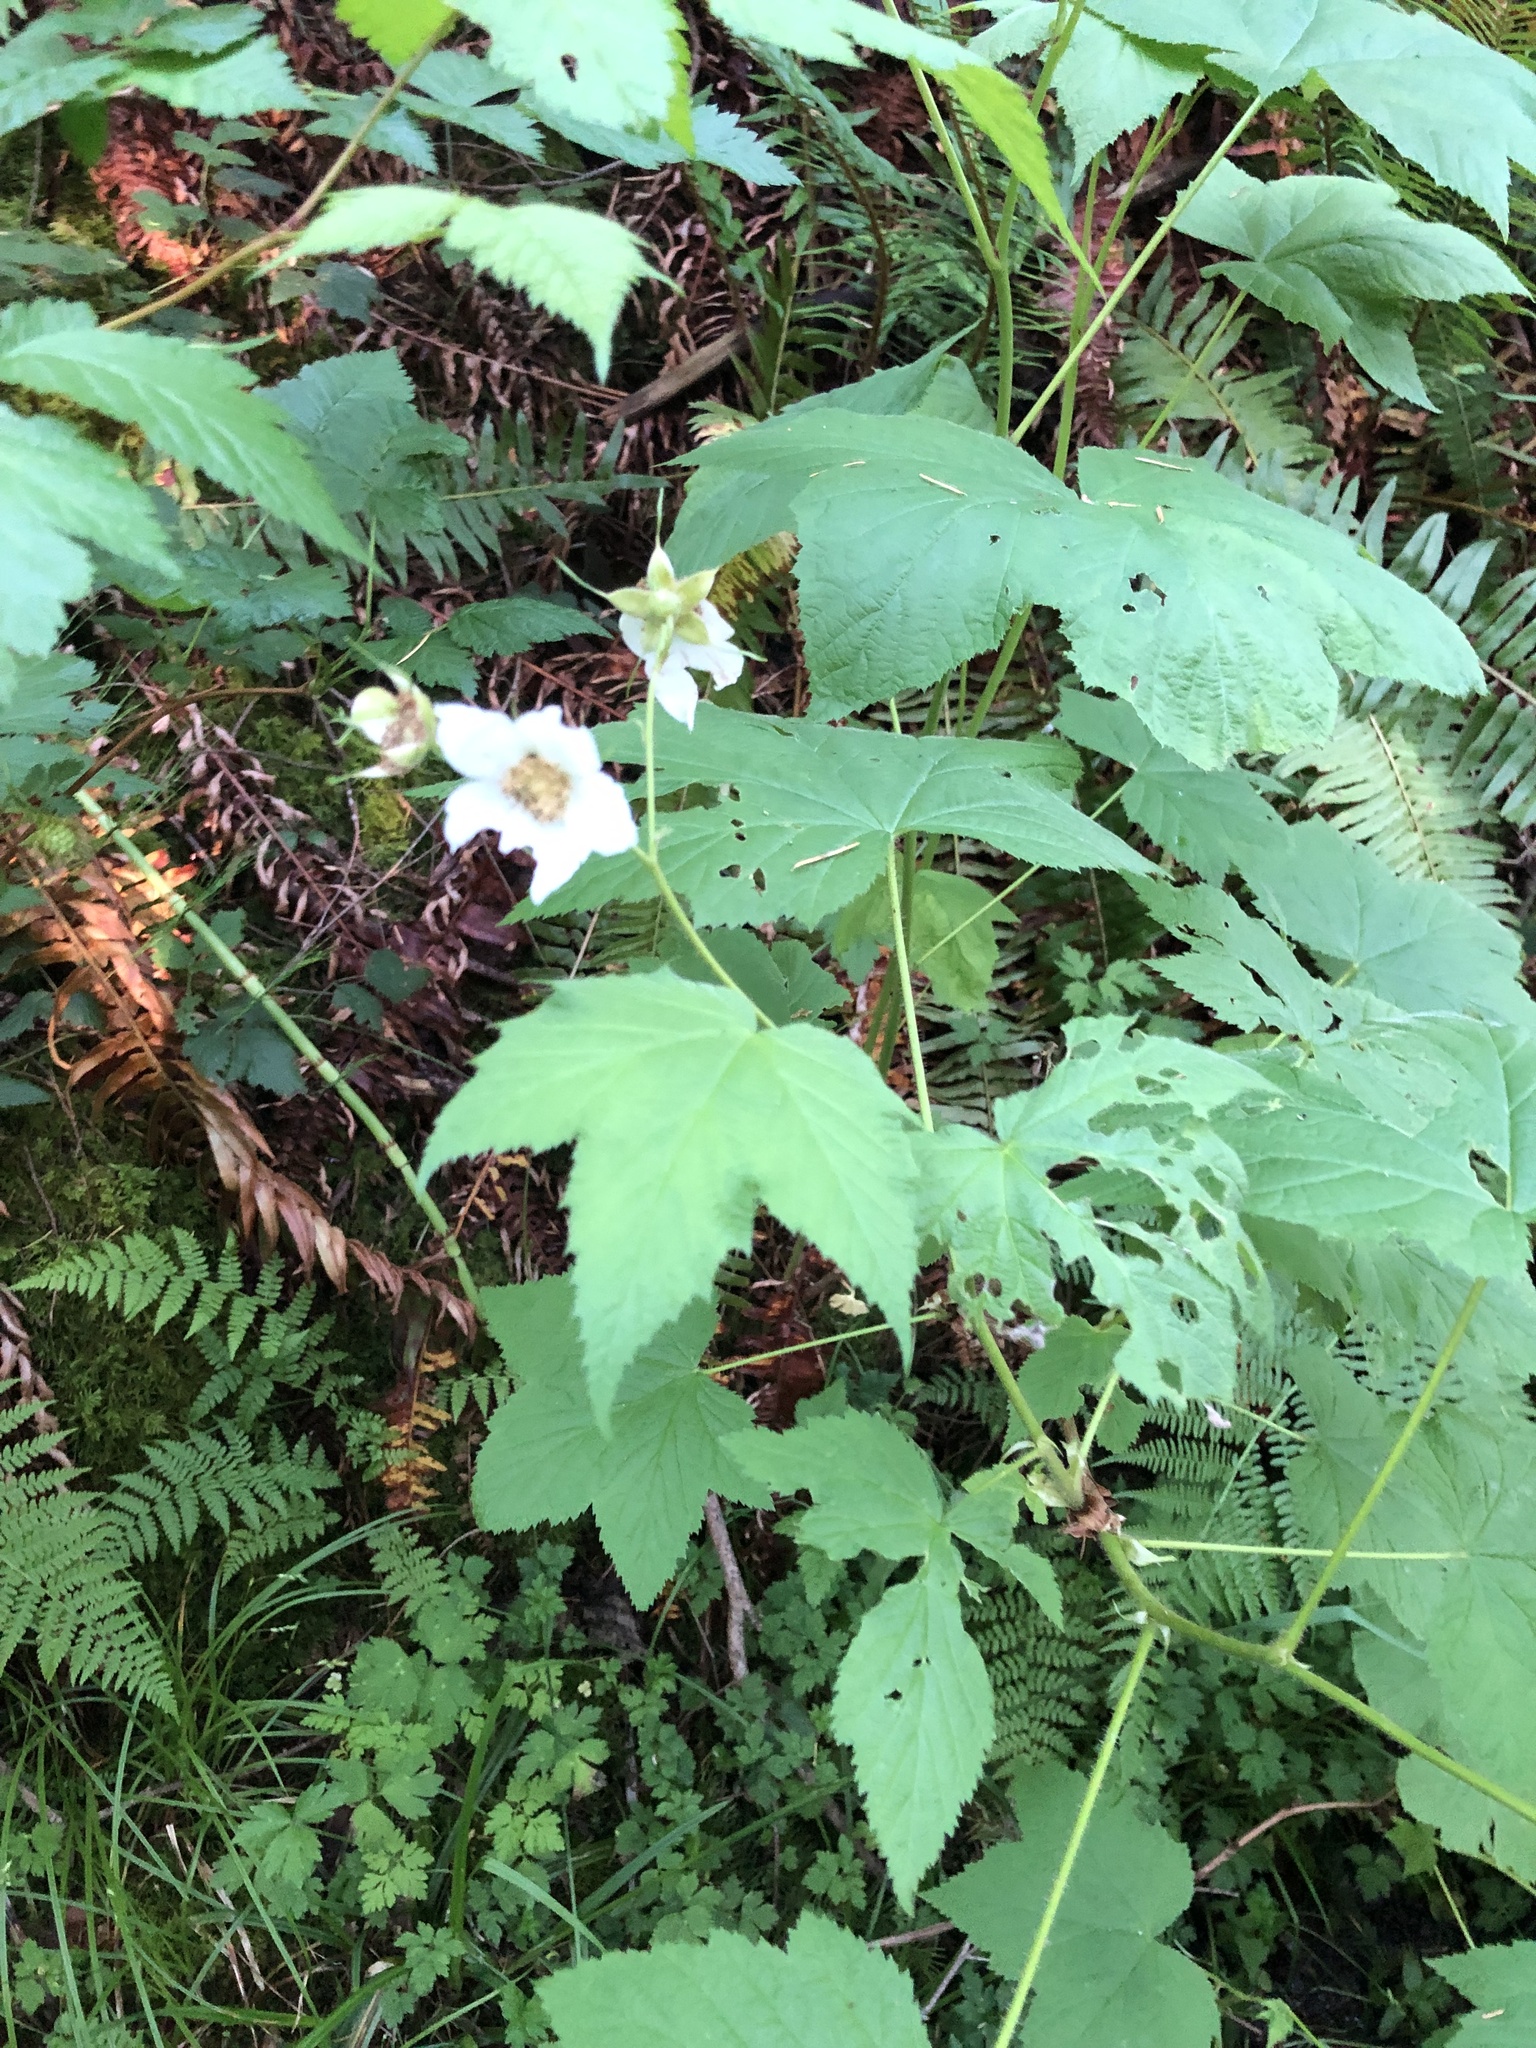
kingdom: Plantae
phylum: Tracheophyta
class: Magnoliopsida
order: Rosales
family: Rosaceae
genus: Rubus
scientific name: Rubus parviflorus
